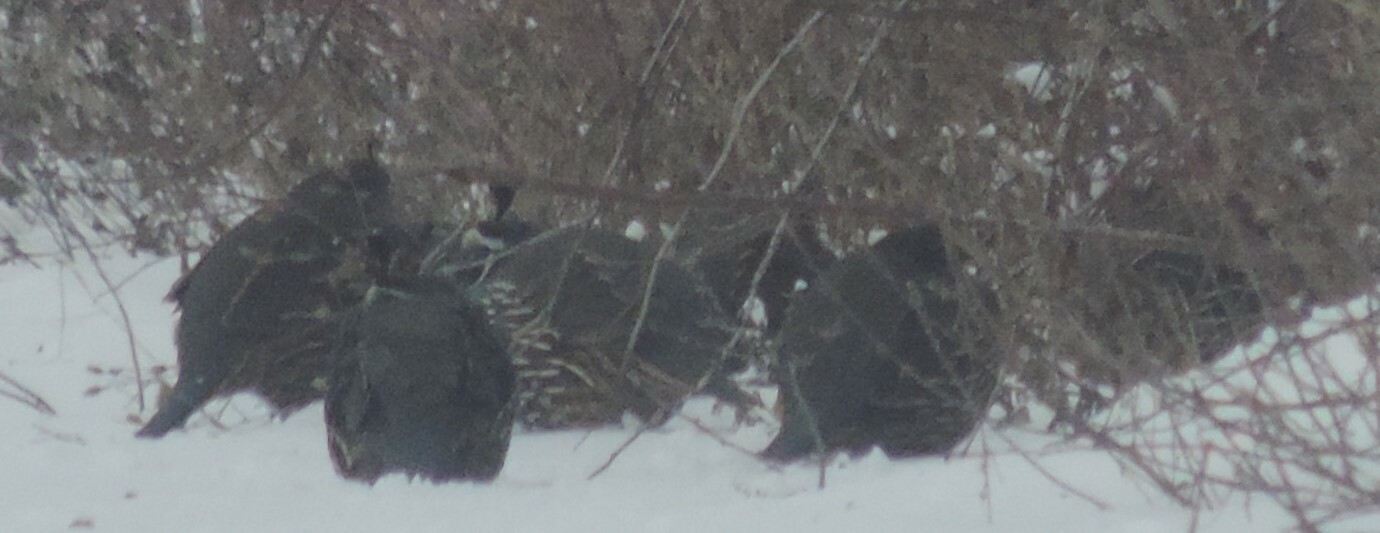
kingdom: Animalia
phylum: Chordata
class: Aves
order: Galliformes
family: Odontophoridae
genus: Callipepla
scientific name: Callipepla californica
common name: California quail
